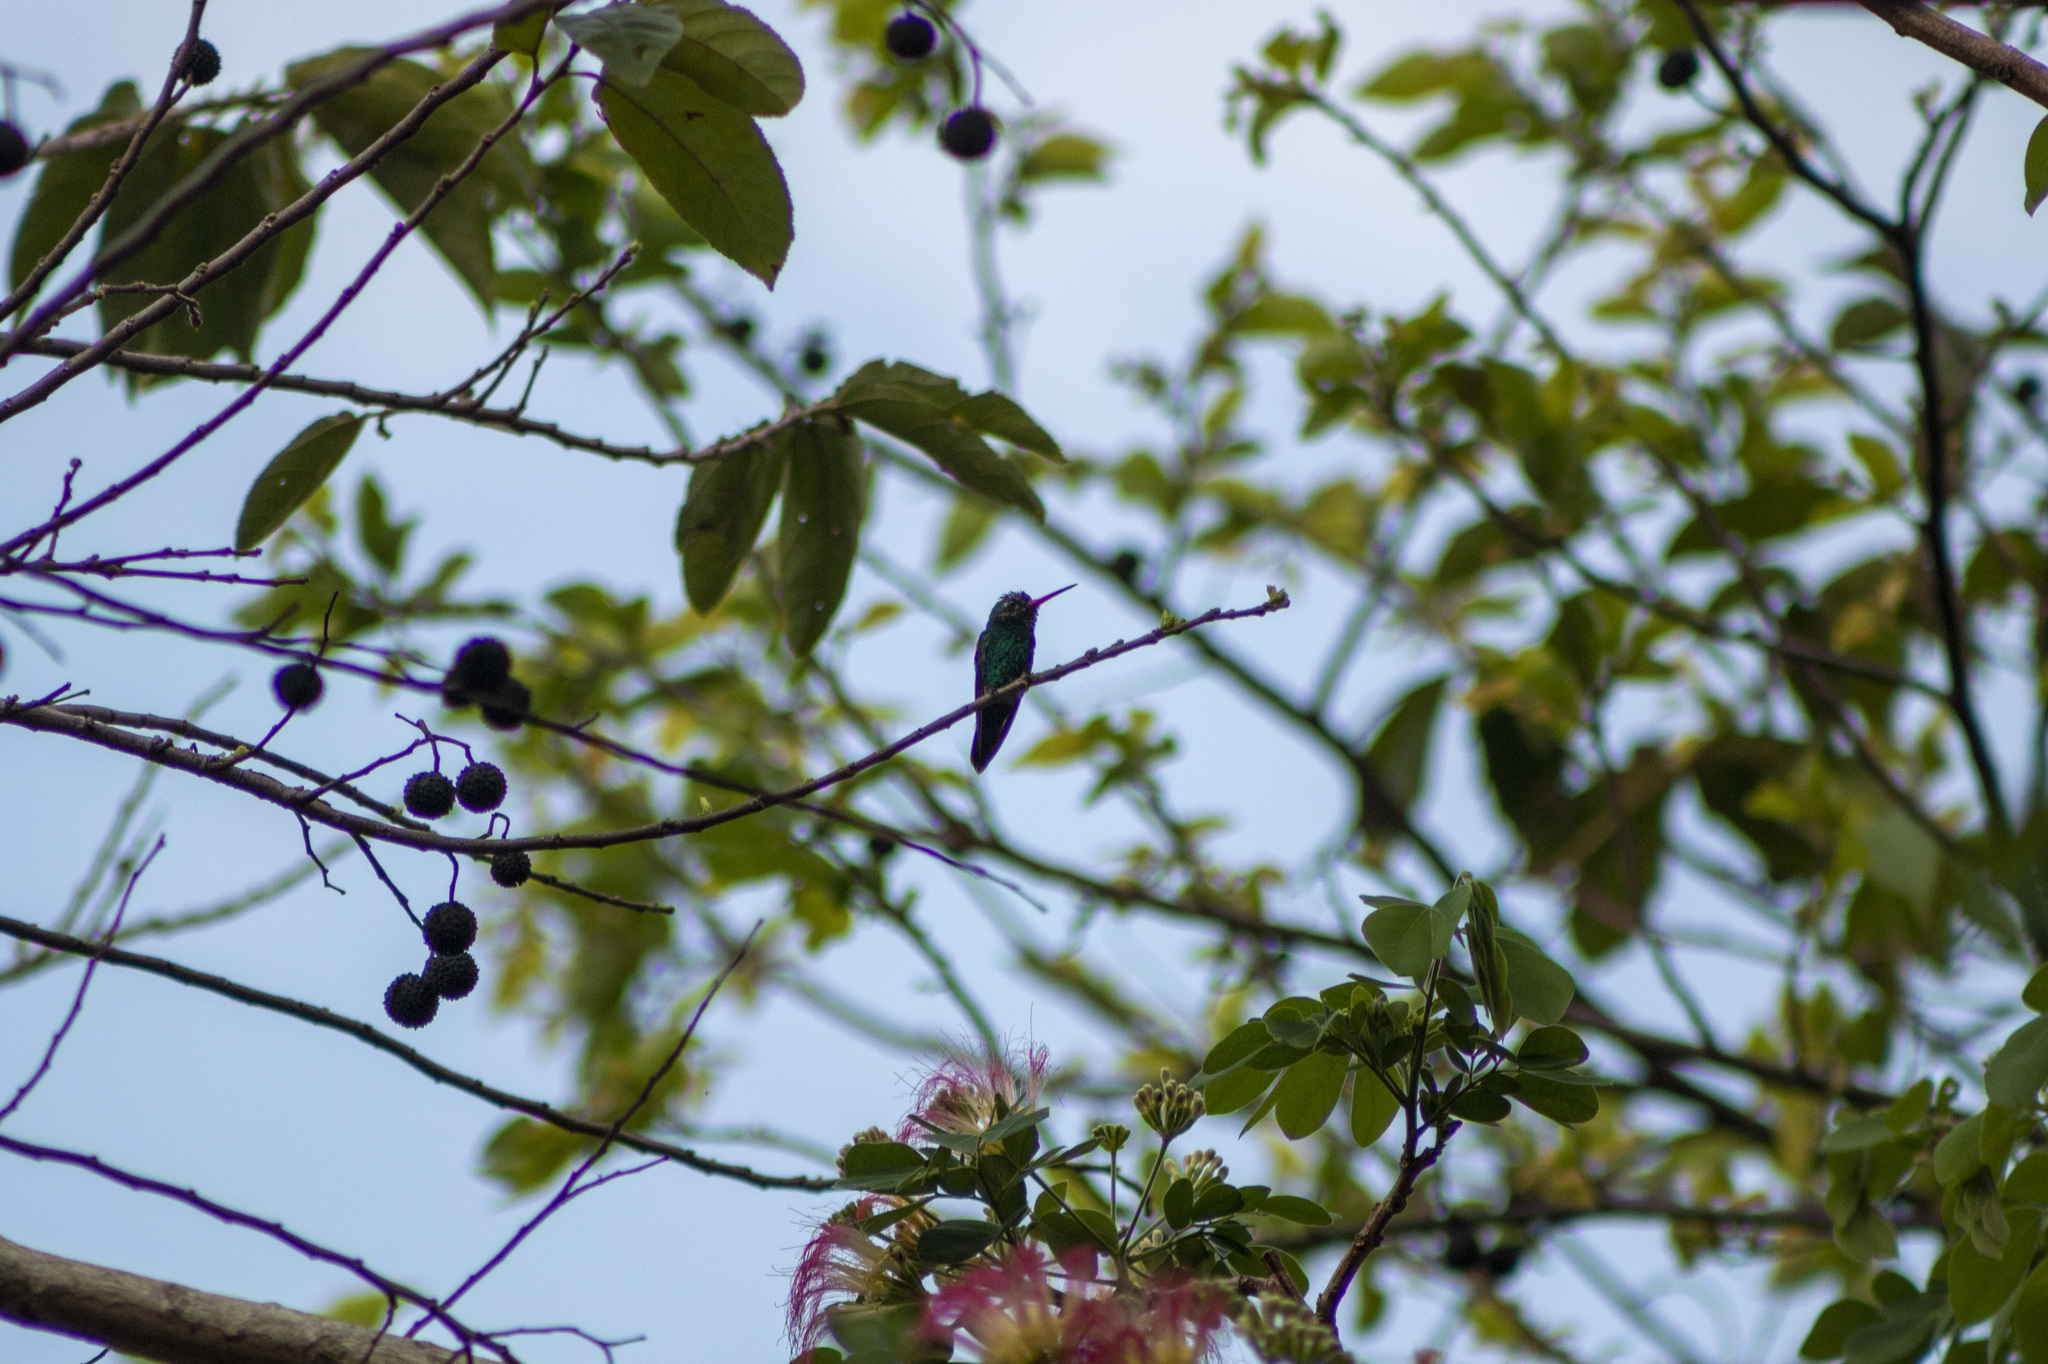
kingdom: Animalia
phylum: Chordata
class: Aves
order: Apodiformes
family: Trochilidae
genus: Chlorostilbon
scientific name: Chlorostilbon lucidus
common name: Glittering-bellied emerald
